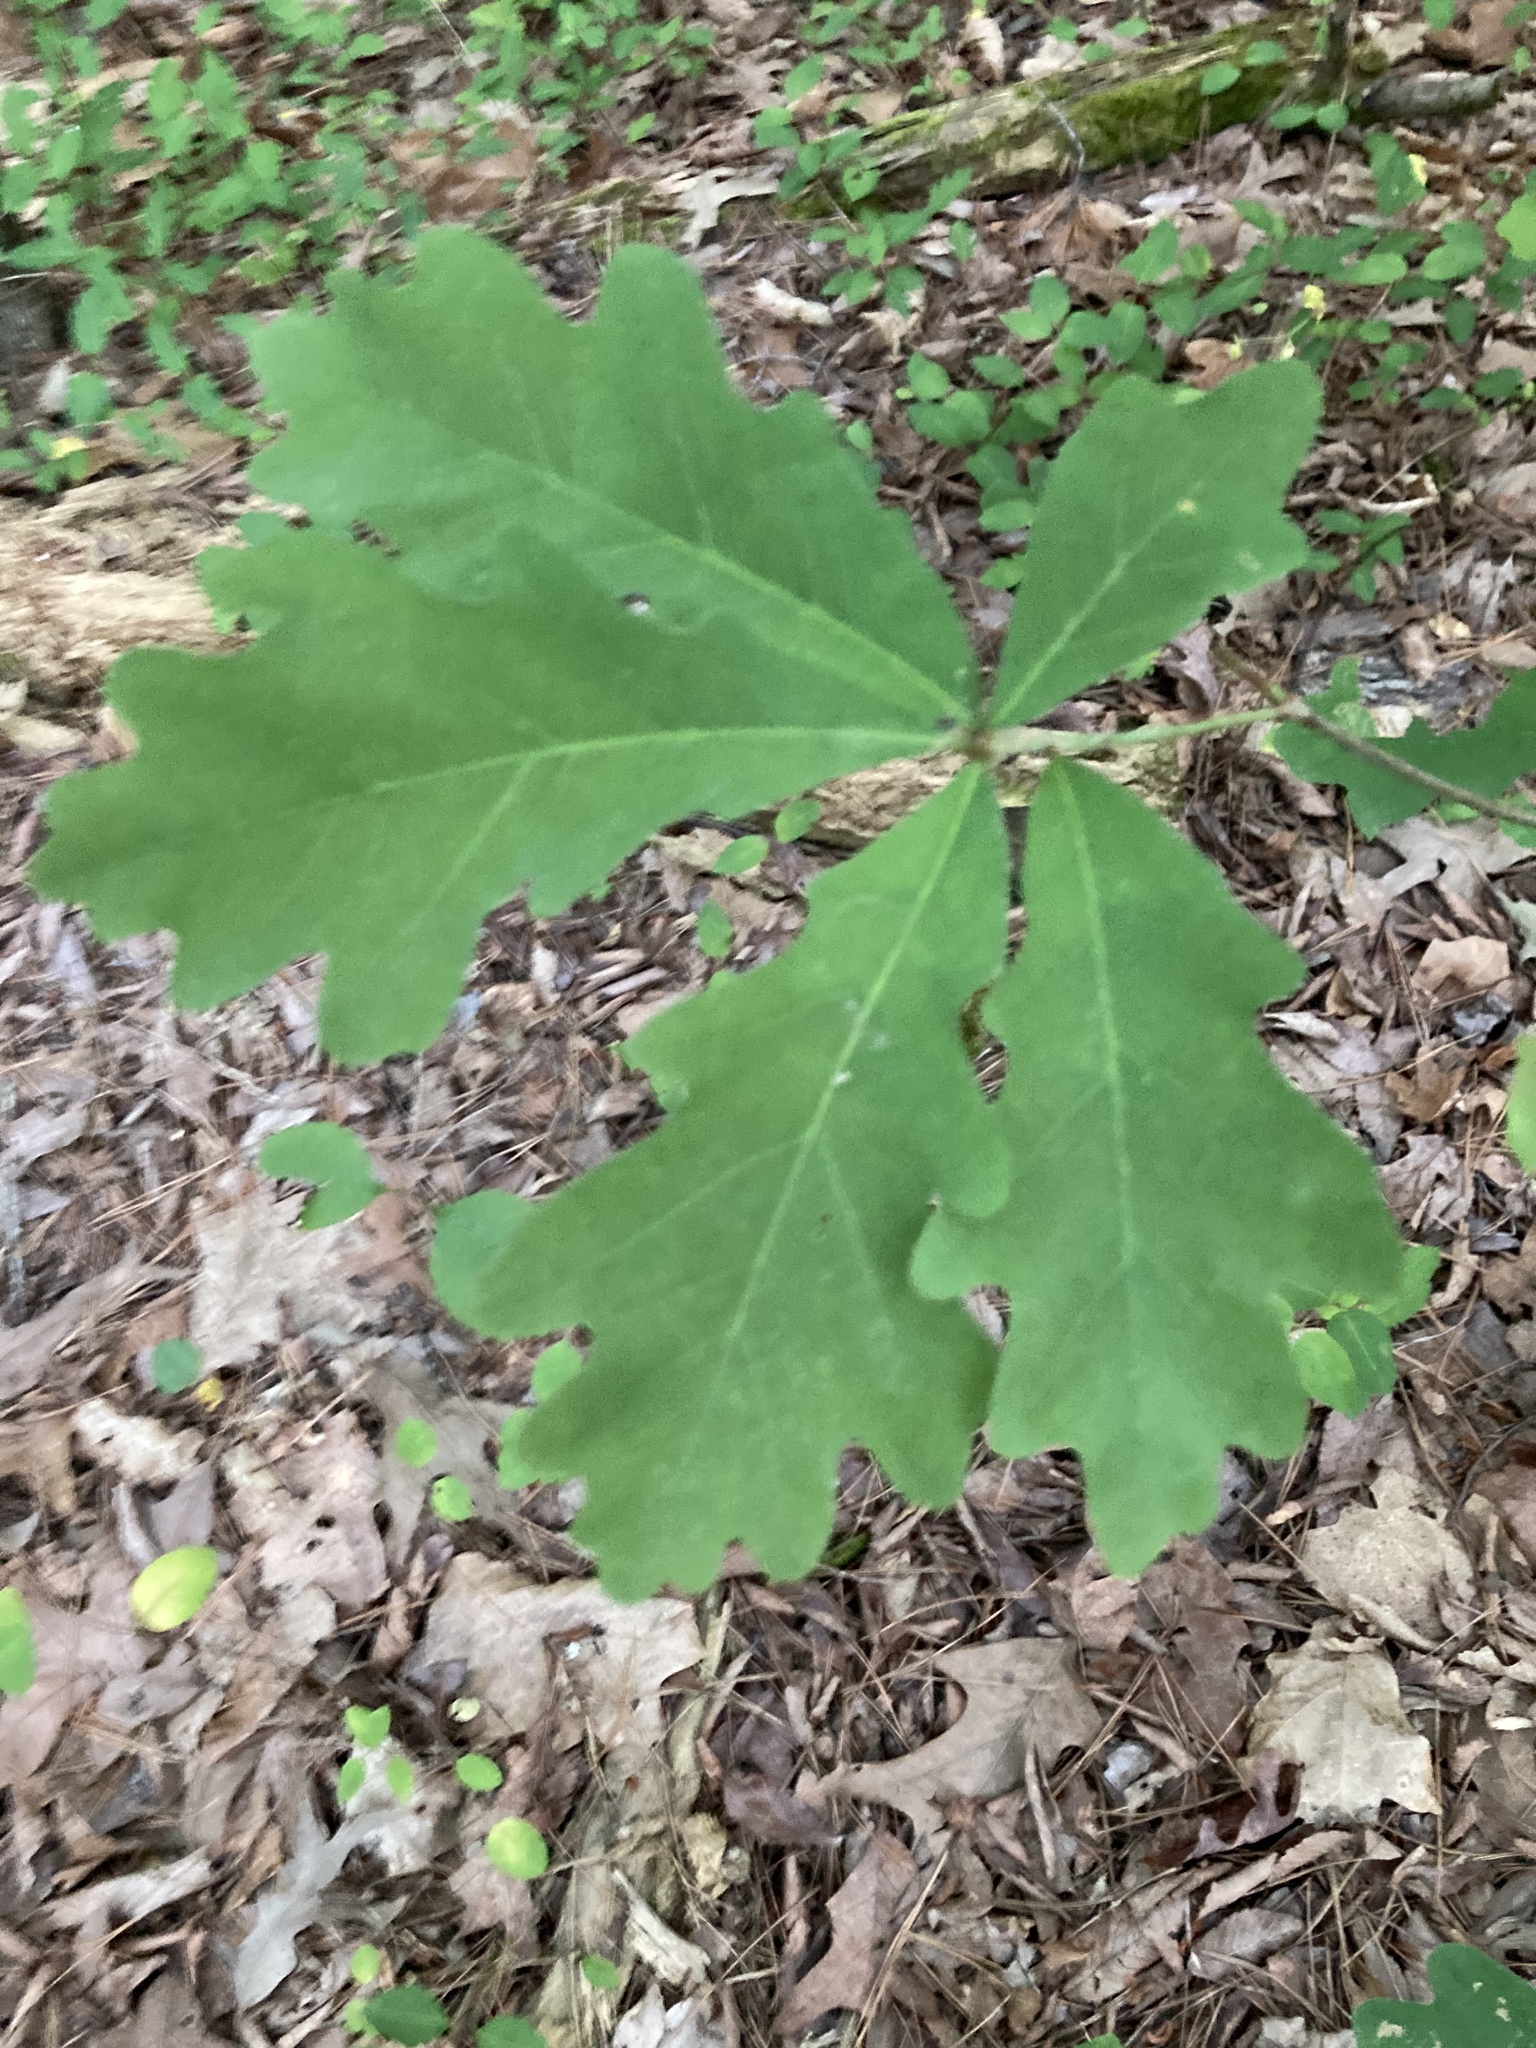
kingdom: Plantae
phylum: Tracheophyta
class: Magnoliopsida
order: Fagales
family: Fagaceae
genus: Quercus
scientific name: Quercus alba
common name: White oak
